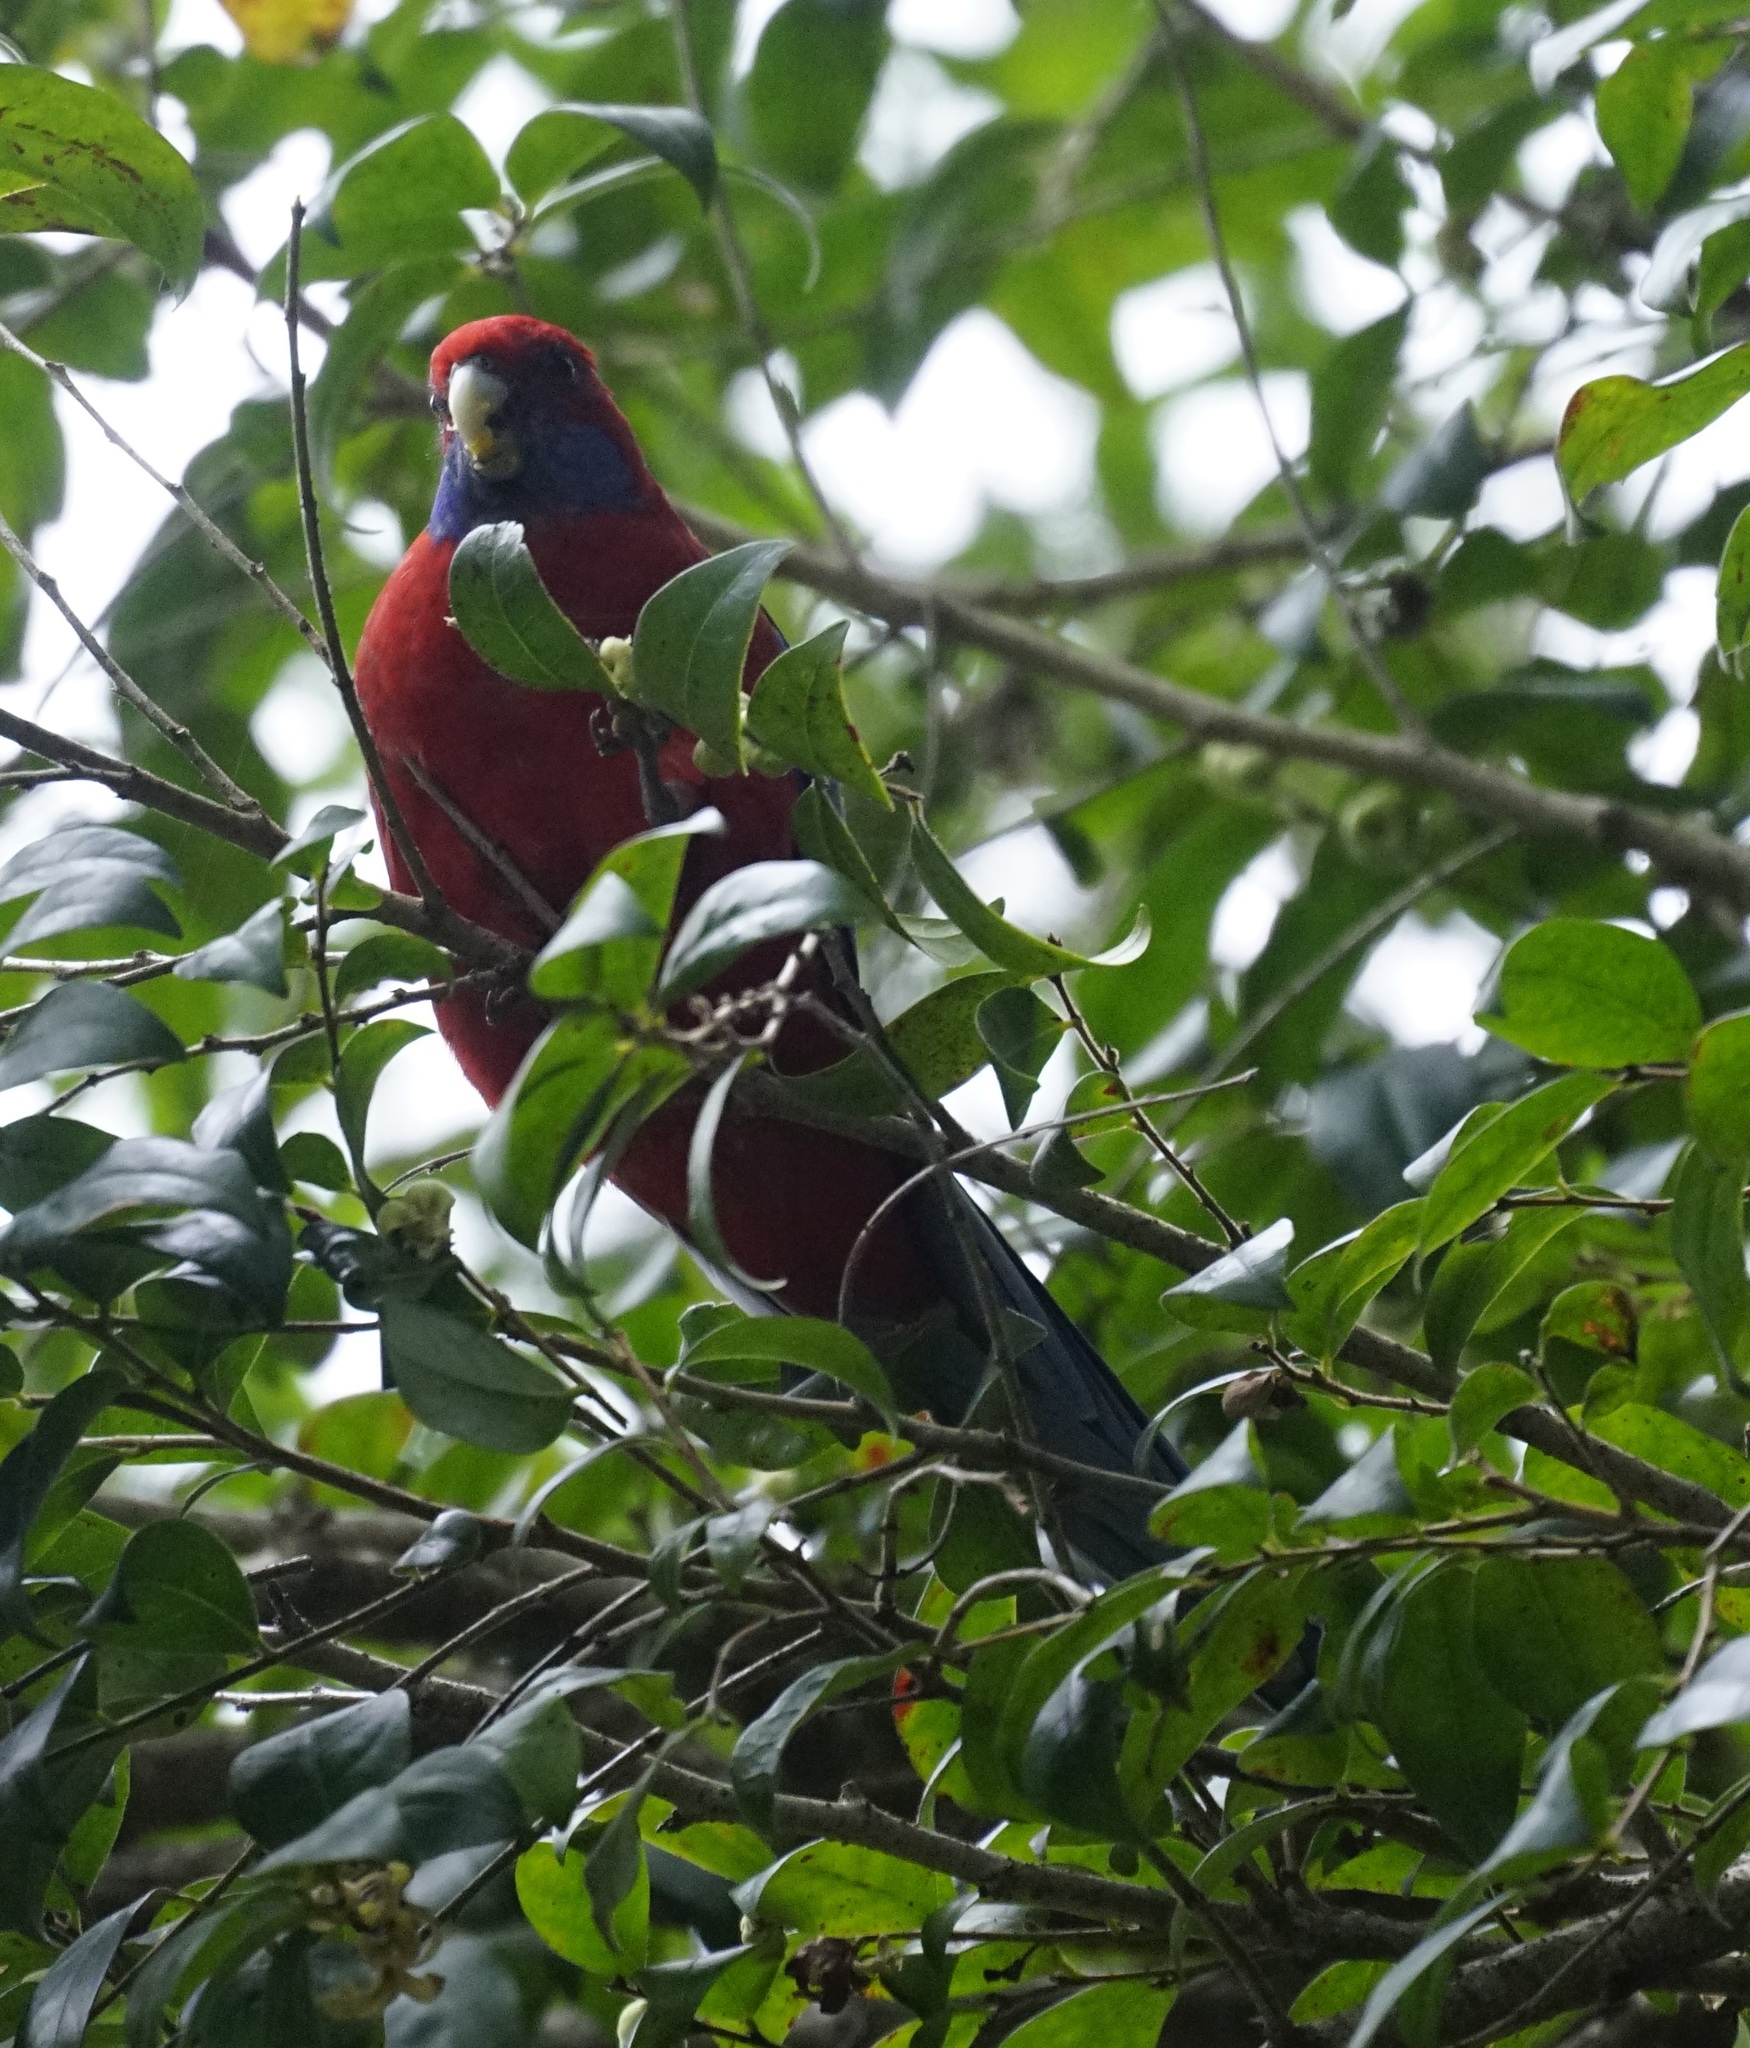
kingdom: Animalia
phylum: Chordata
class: Aves
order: Psittaciformes
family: Psittacidae
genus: Platycercus
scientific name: Platycercus elegans
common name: Crimson rosella
